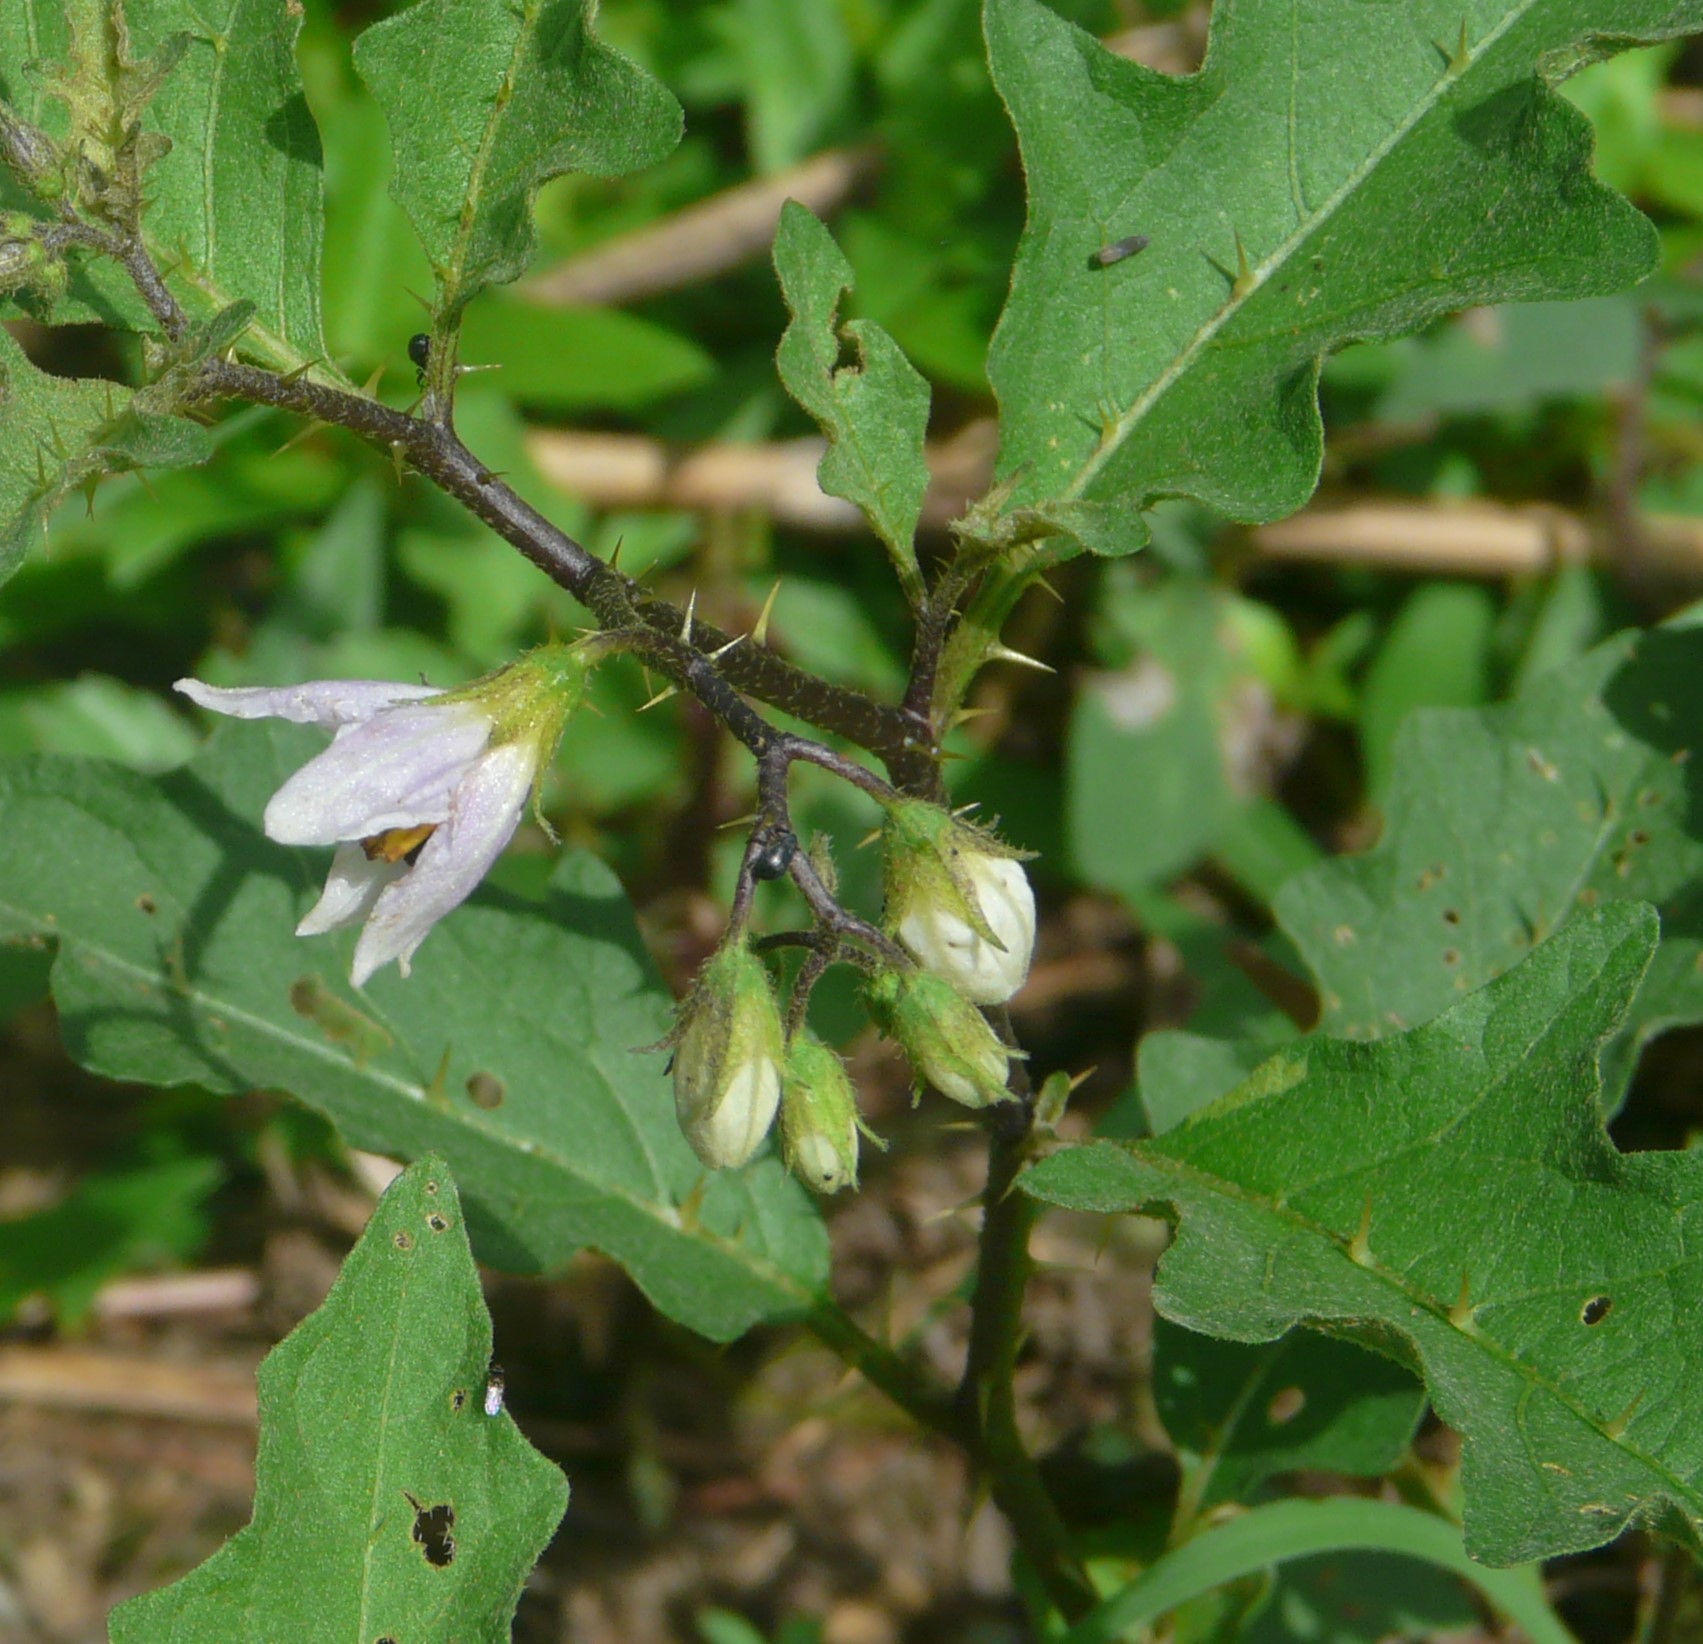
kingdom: Plantae
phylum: Tracheophyta
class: Magnoliopsida
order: Solanales
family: Solanaceae
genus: Solanum
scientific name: Solanum carolinense
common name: Horse-nettle
